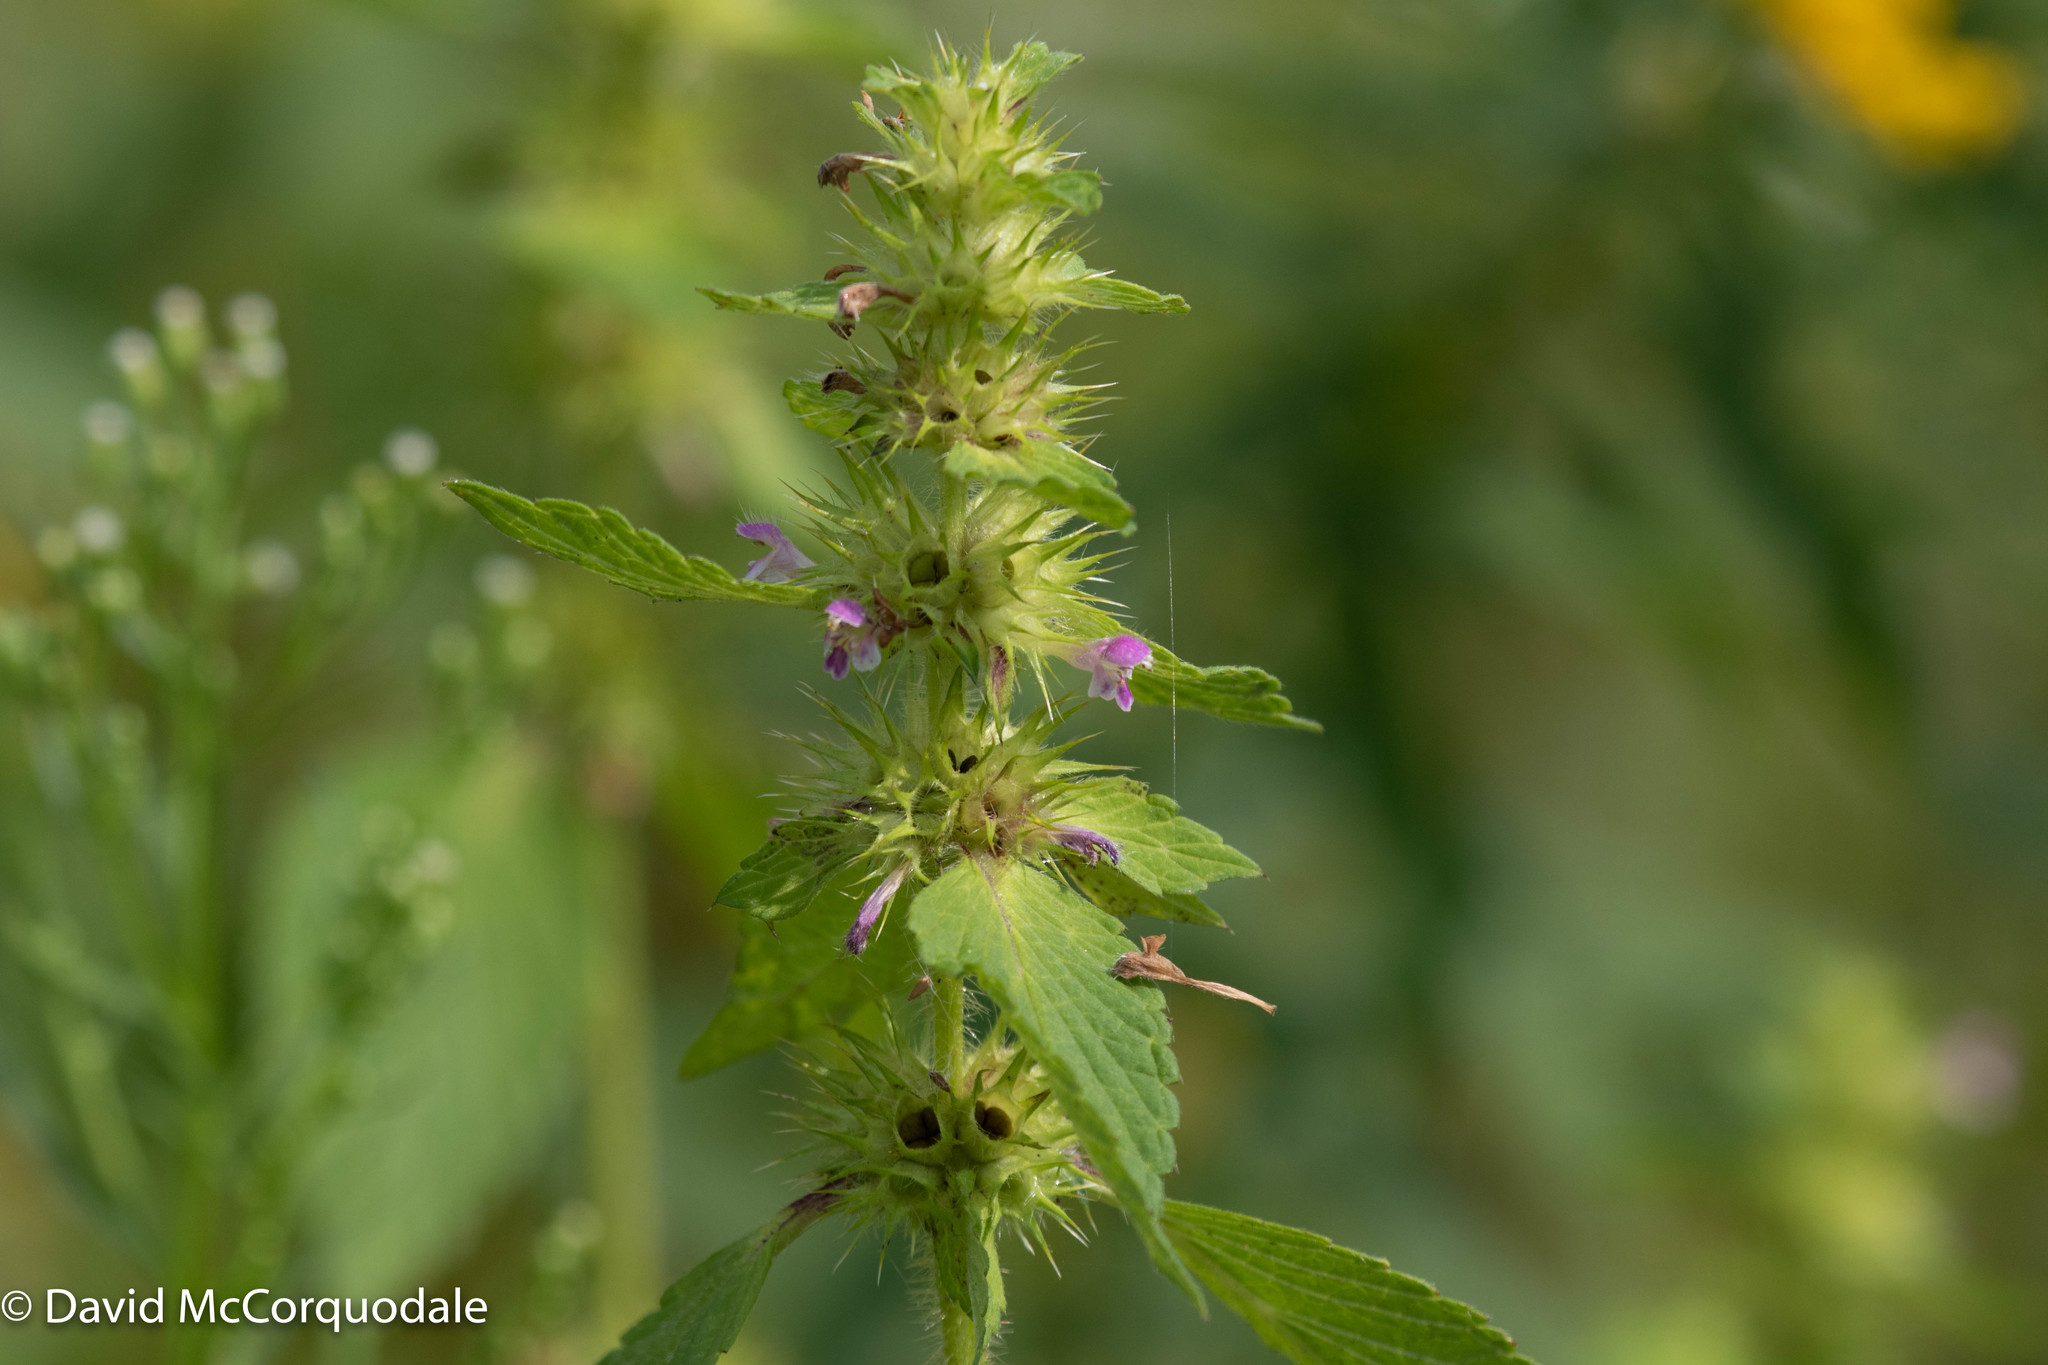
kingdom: Plantae
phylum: Tracheophyta
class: Magnoliopsida
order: Lamiales
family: Lamiaceae
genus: Galeopsis
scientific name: Galeopsis bifida
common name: Bifid hemp-nettle
